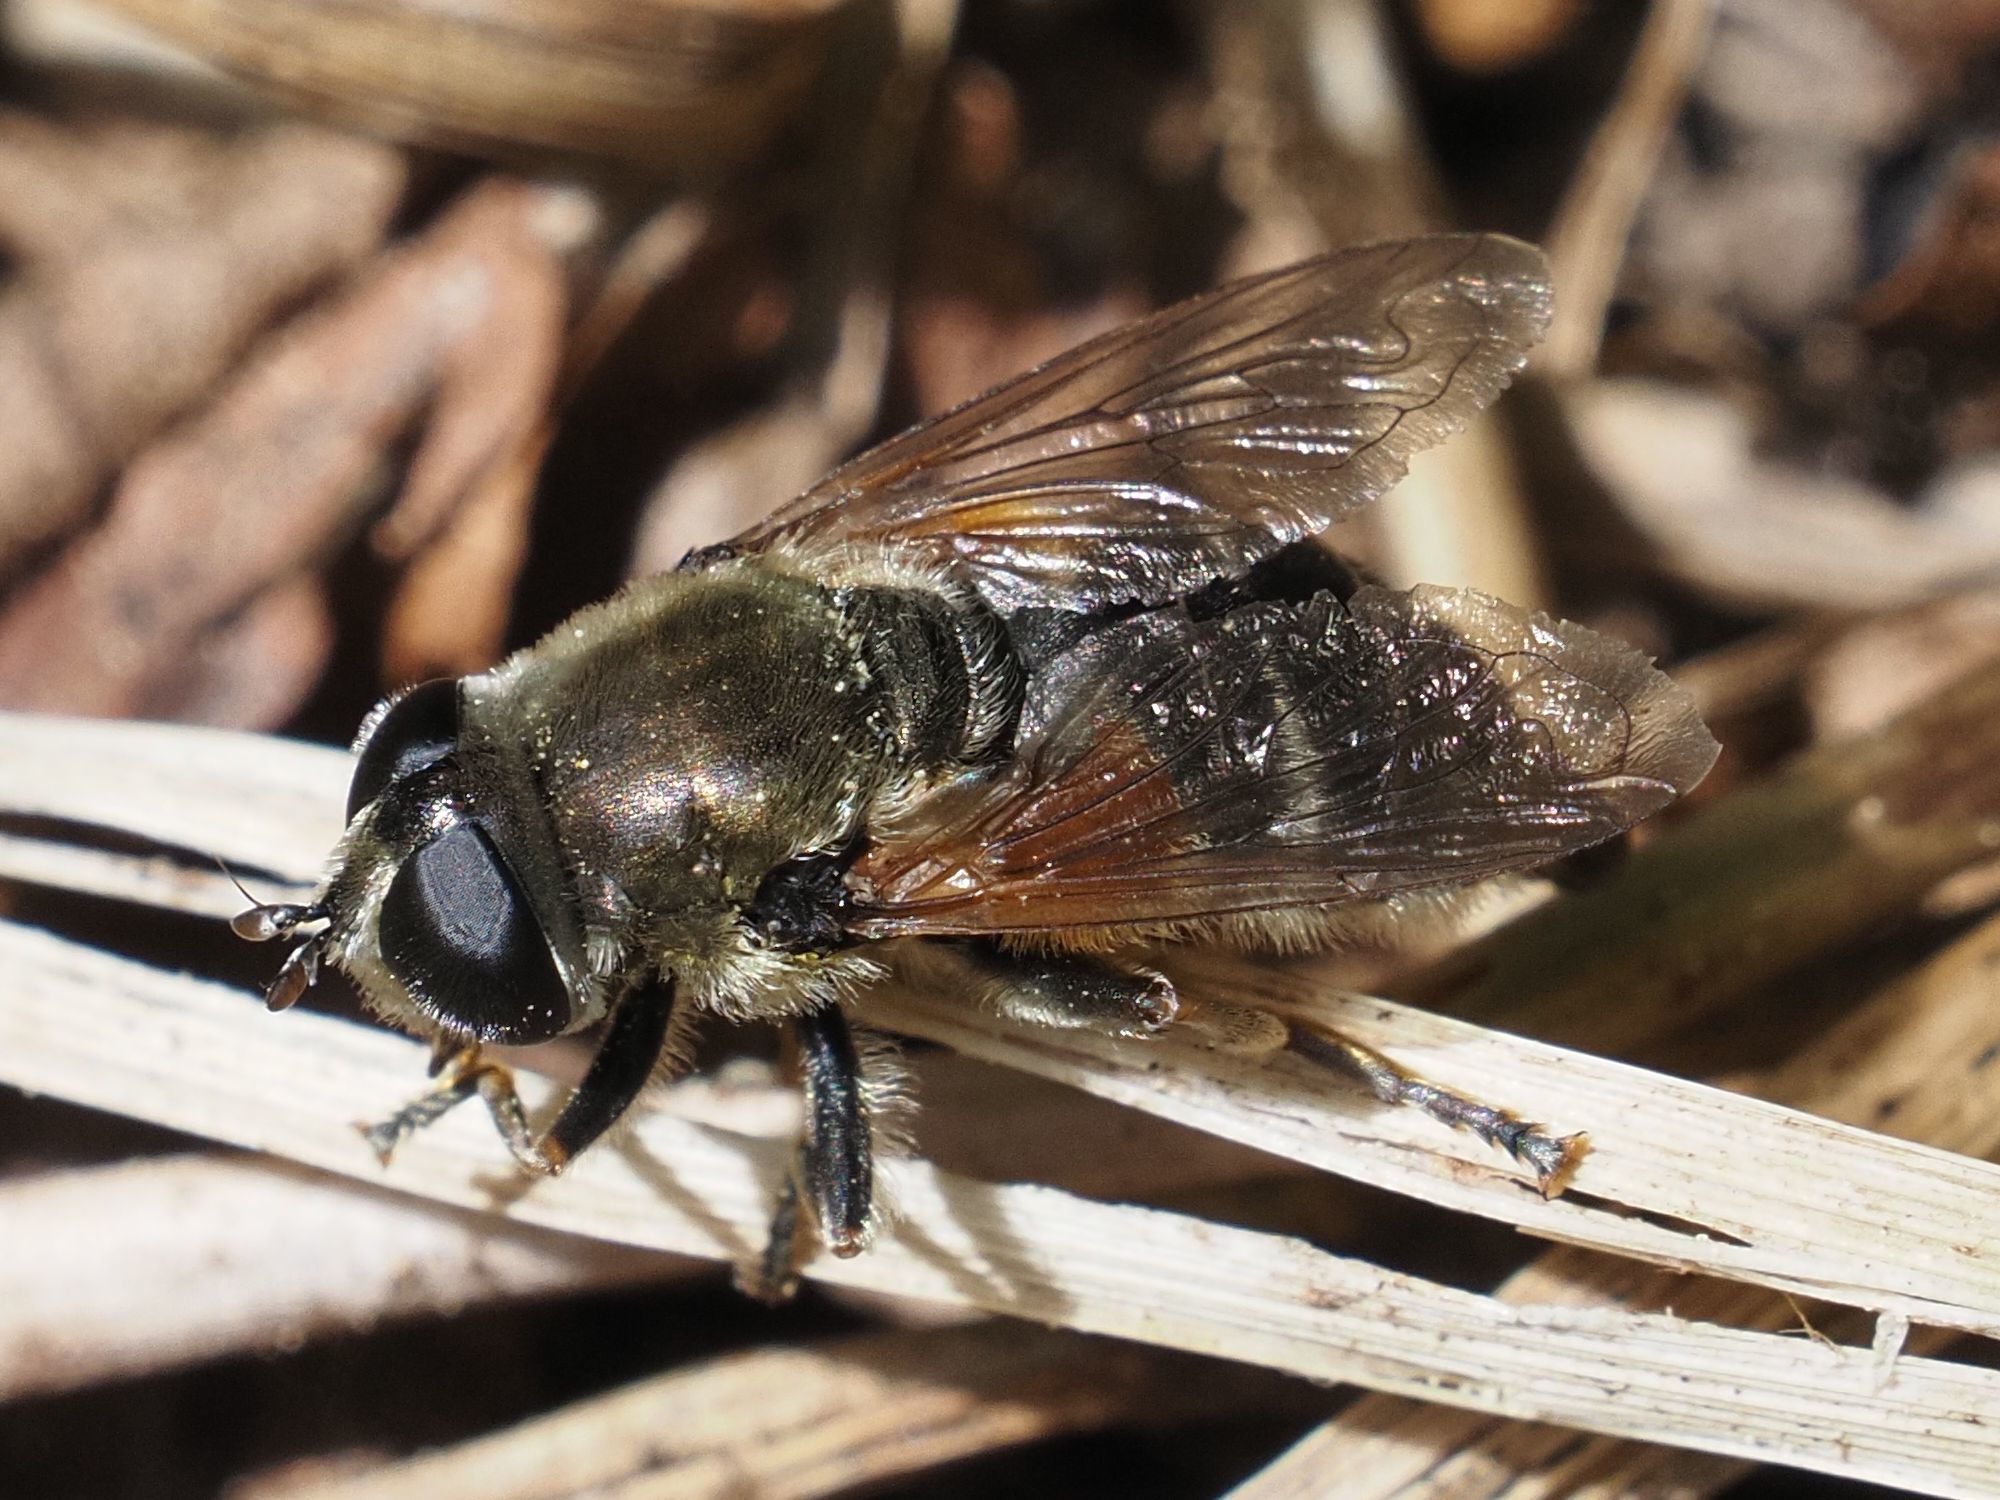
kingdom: Animalia
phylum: Arthropoda
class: Insecta
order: Diptera
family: Syrphidae
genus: Merodon
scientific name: Merodon ruficornis
